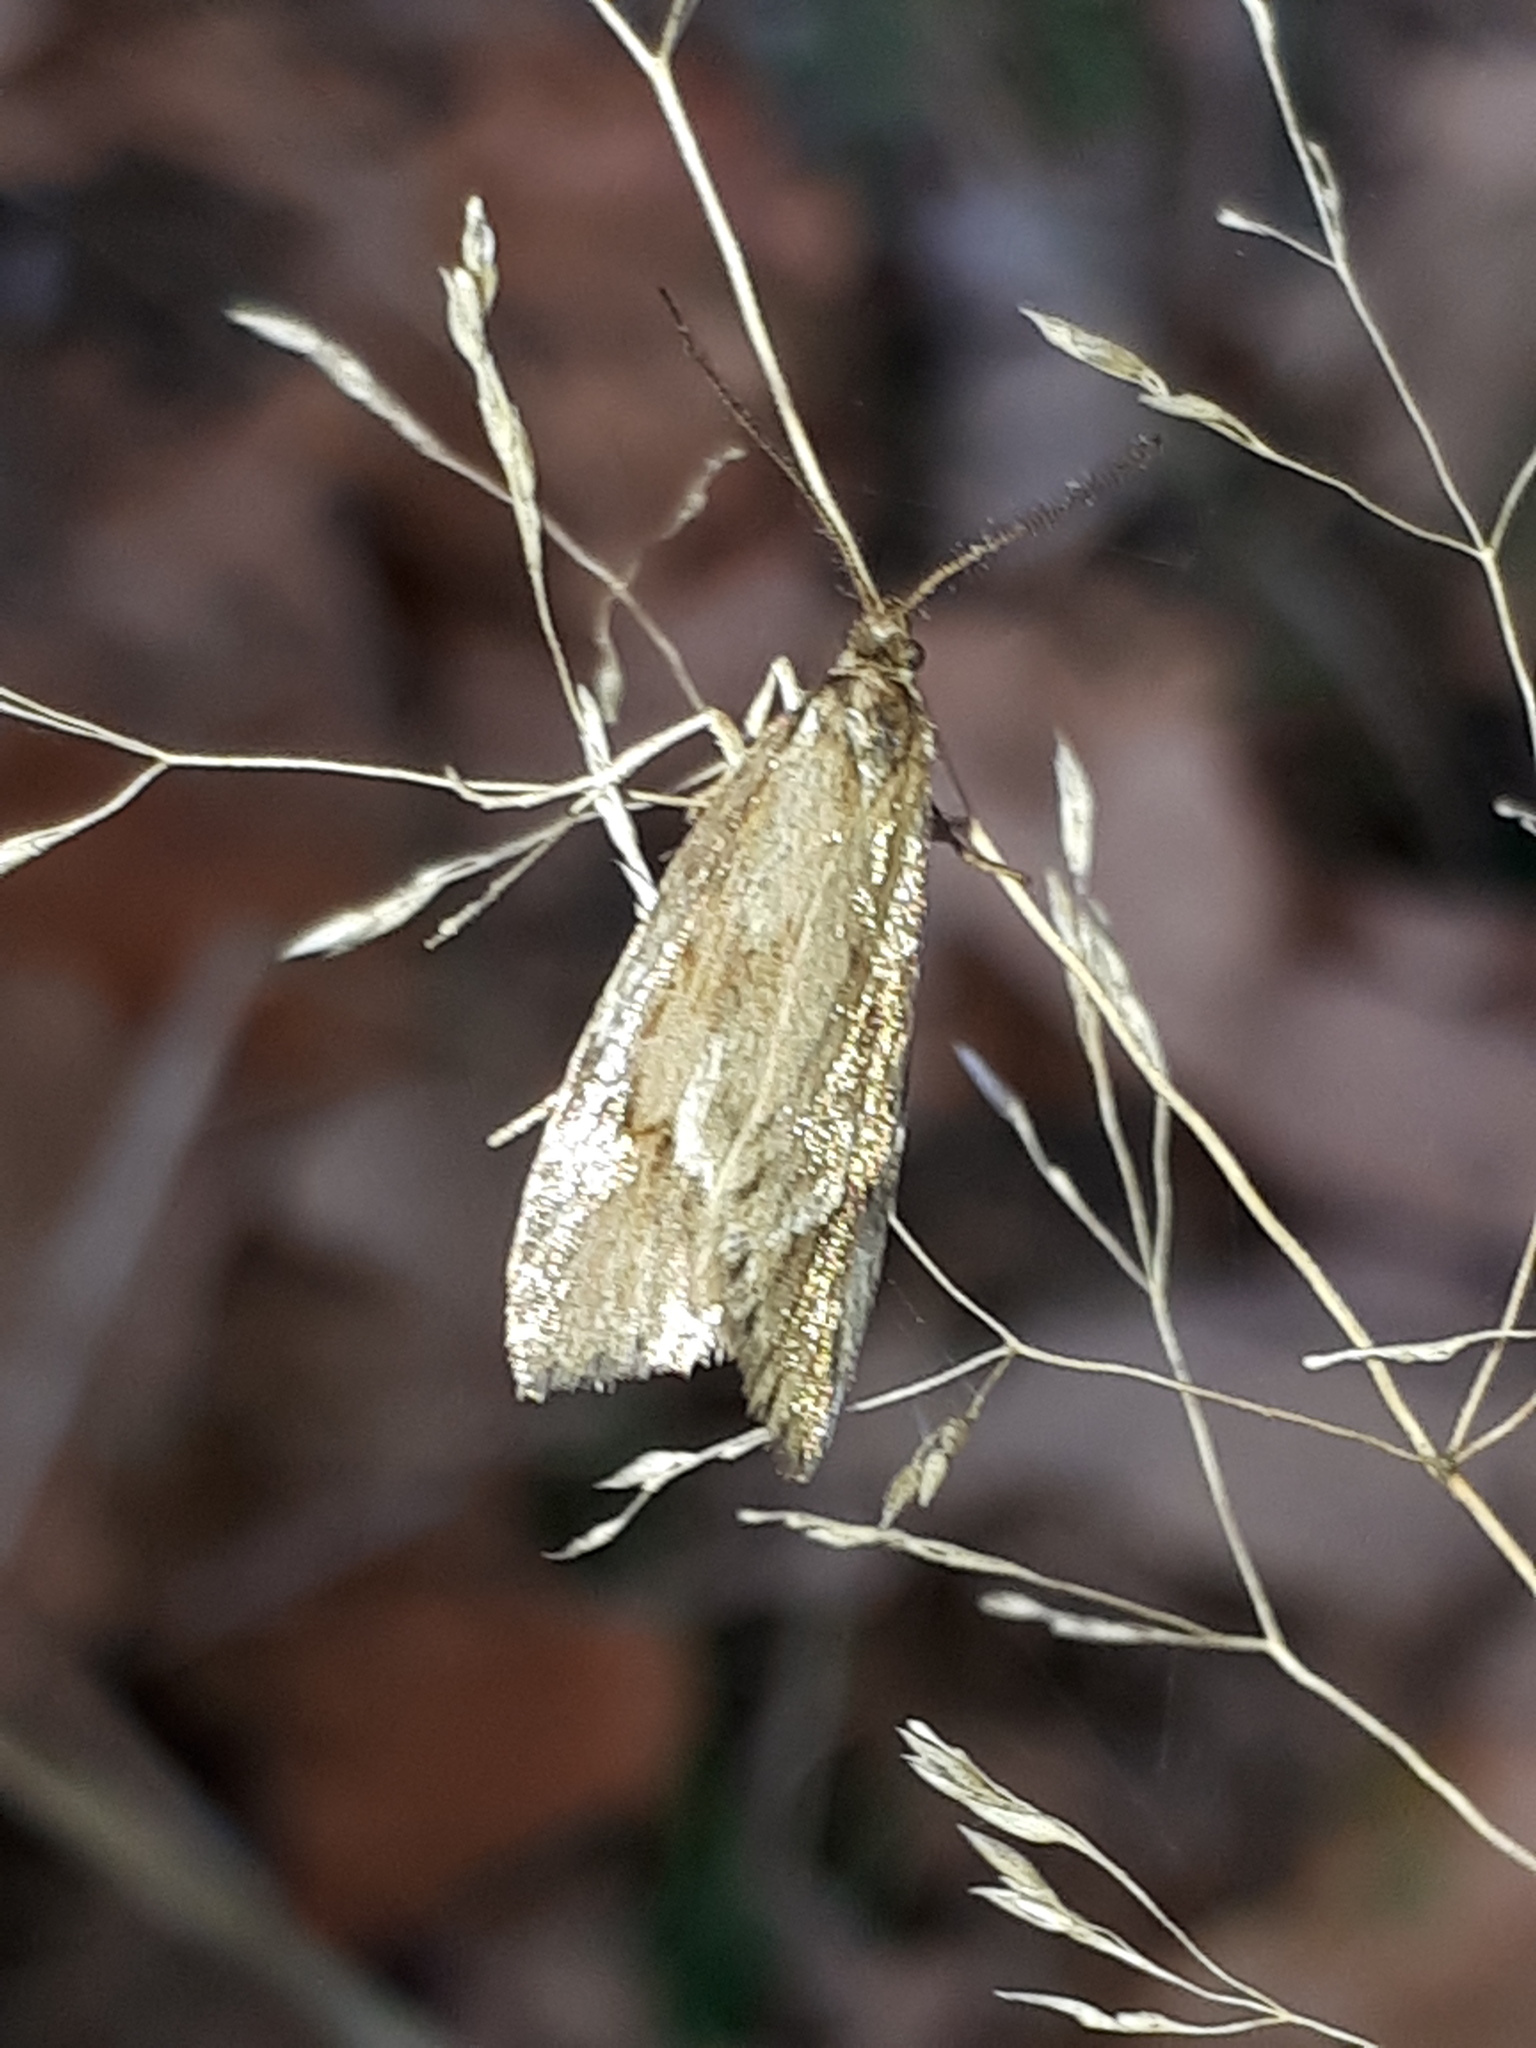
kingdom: Animalia
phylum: Arthropoda
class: Insecta
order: Lepidoptera
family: Lypusidae
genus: Diurnea
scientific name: Diurnea lipsiella
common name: November tubic
